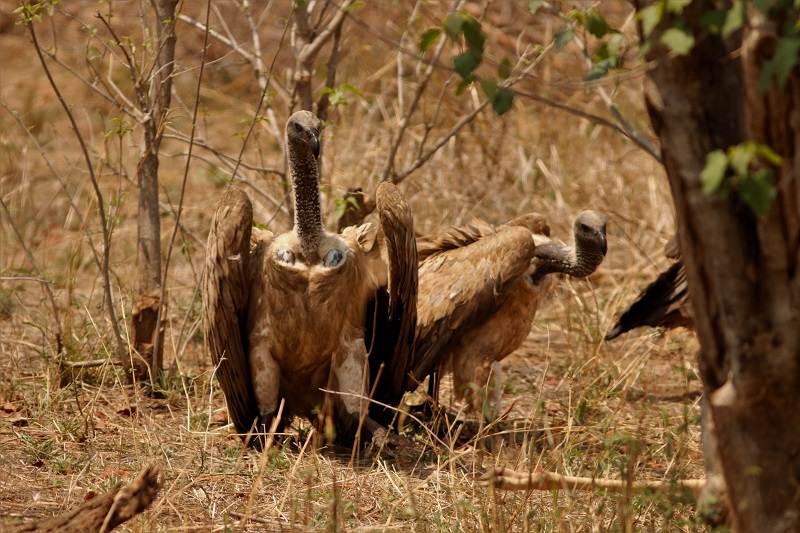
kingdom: Animalia
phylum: Chordata
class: Aves
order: Accipitriformes
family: Accipitridae
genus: Gyps
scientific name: Gyps coprotheres
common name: Cape vulture
